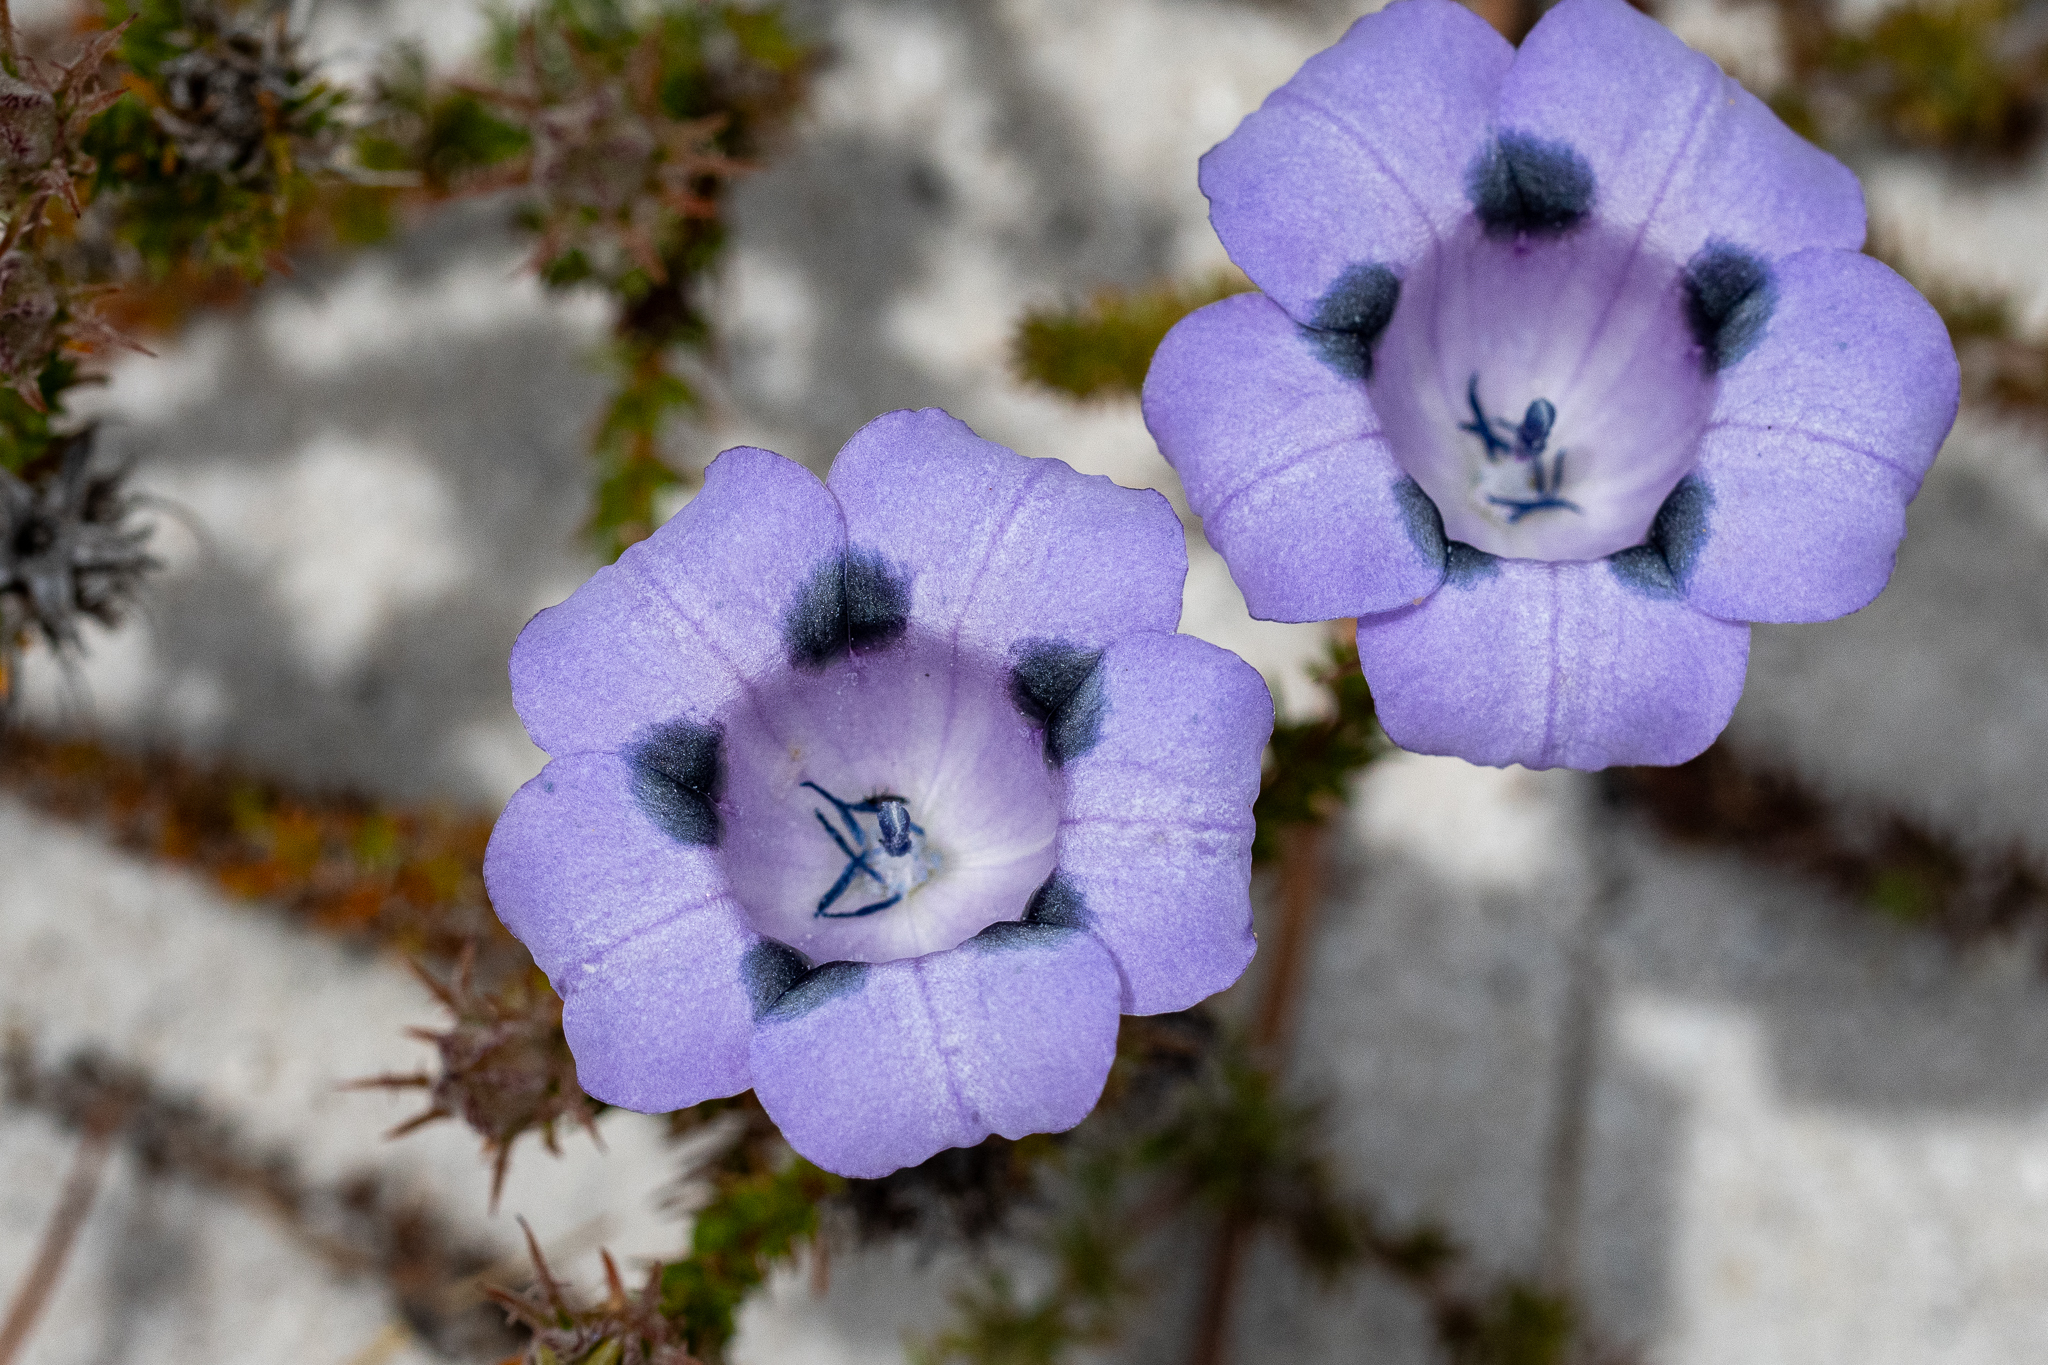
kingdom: Plantae
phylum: Tracheophyta
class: Magnoliopsida
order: Asterales
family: Campanulaceae
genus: Roella
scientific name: Roella maculata
